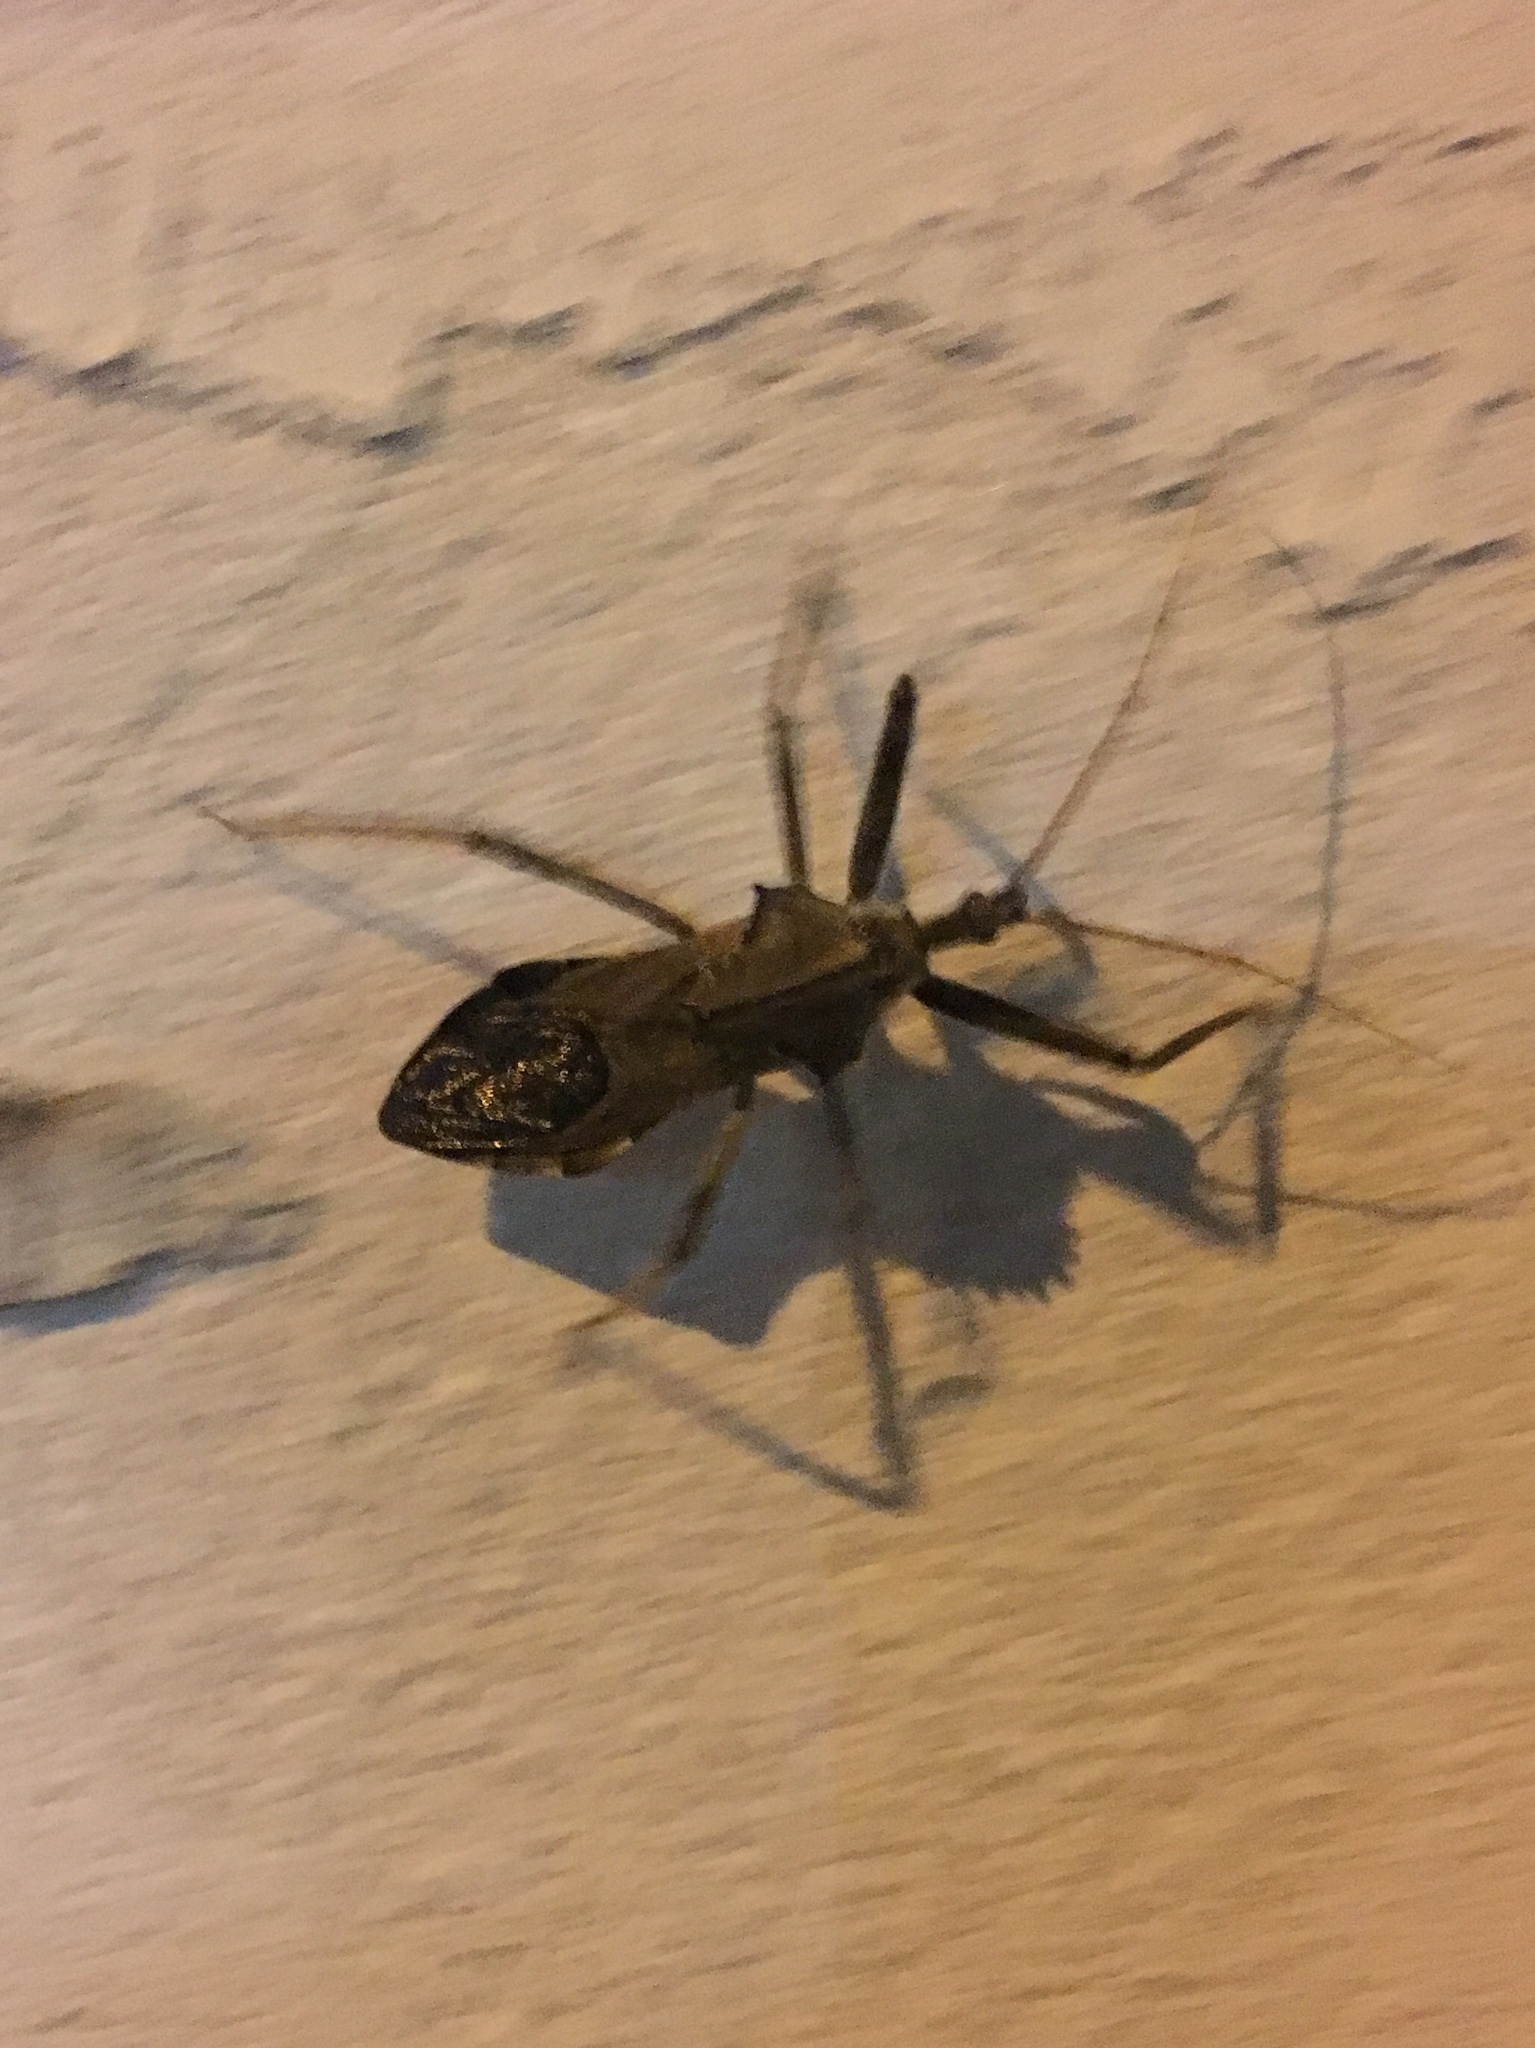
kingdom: Animalia
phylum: Arthropoda
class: Insecta
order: Hemiptera
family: Reduviidae
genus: Arilus
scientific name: Arilus cristatus
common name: North american wheel bug
